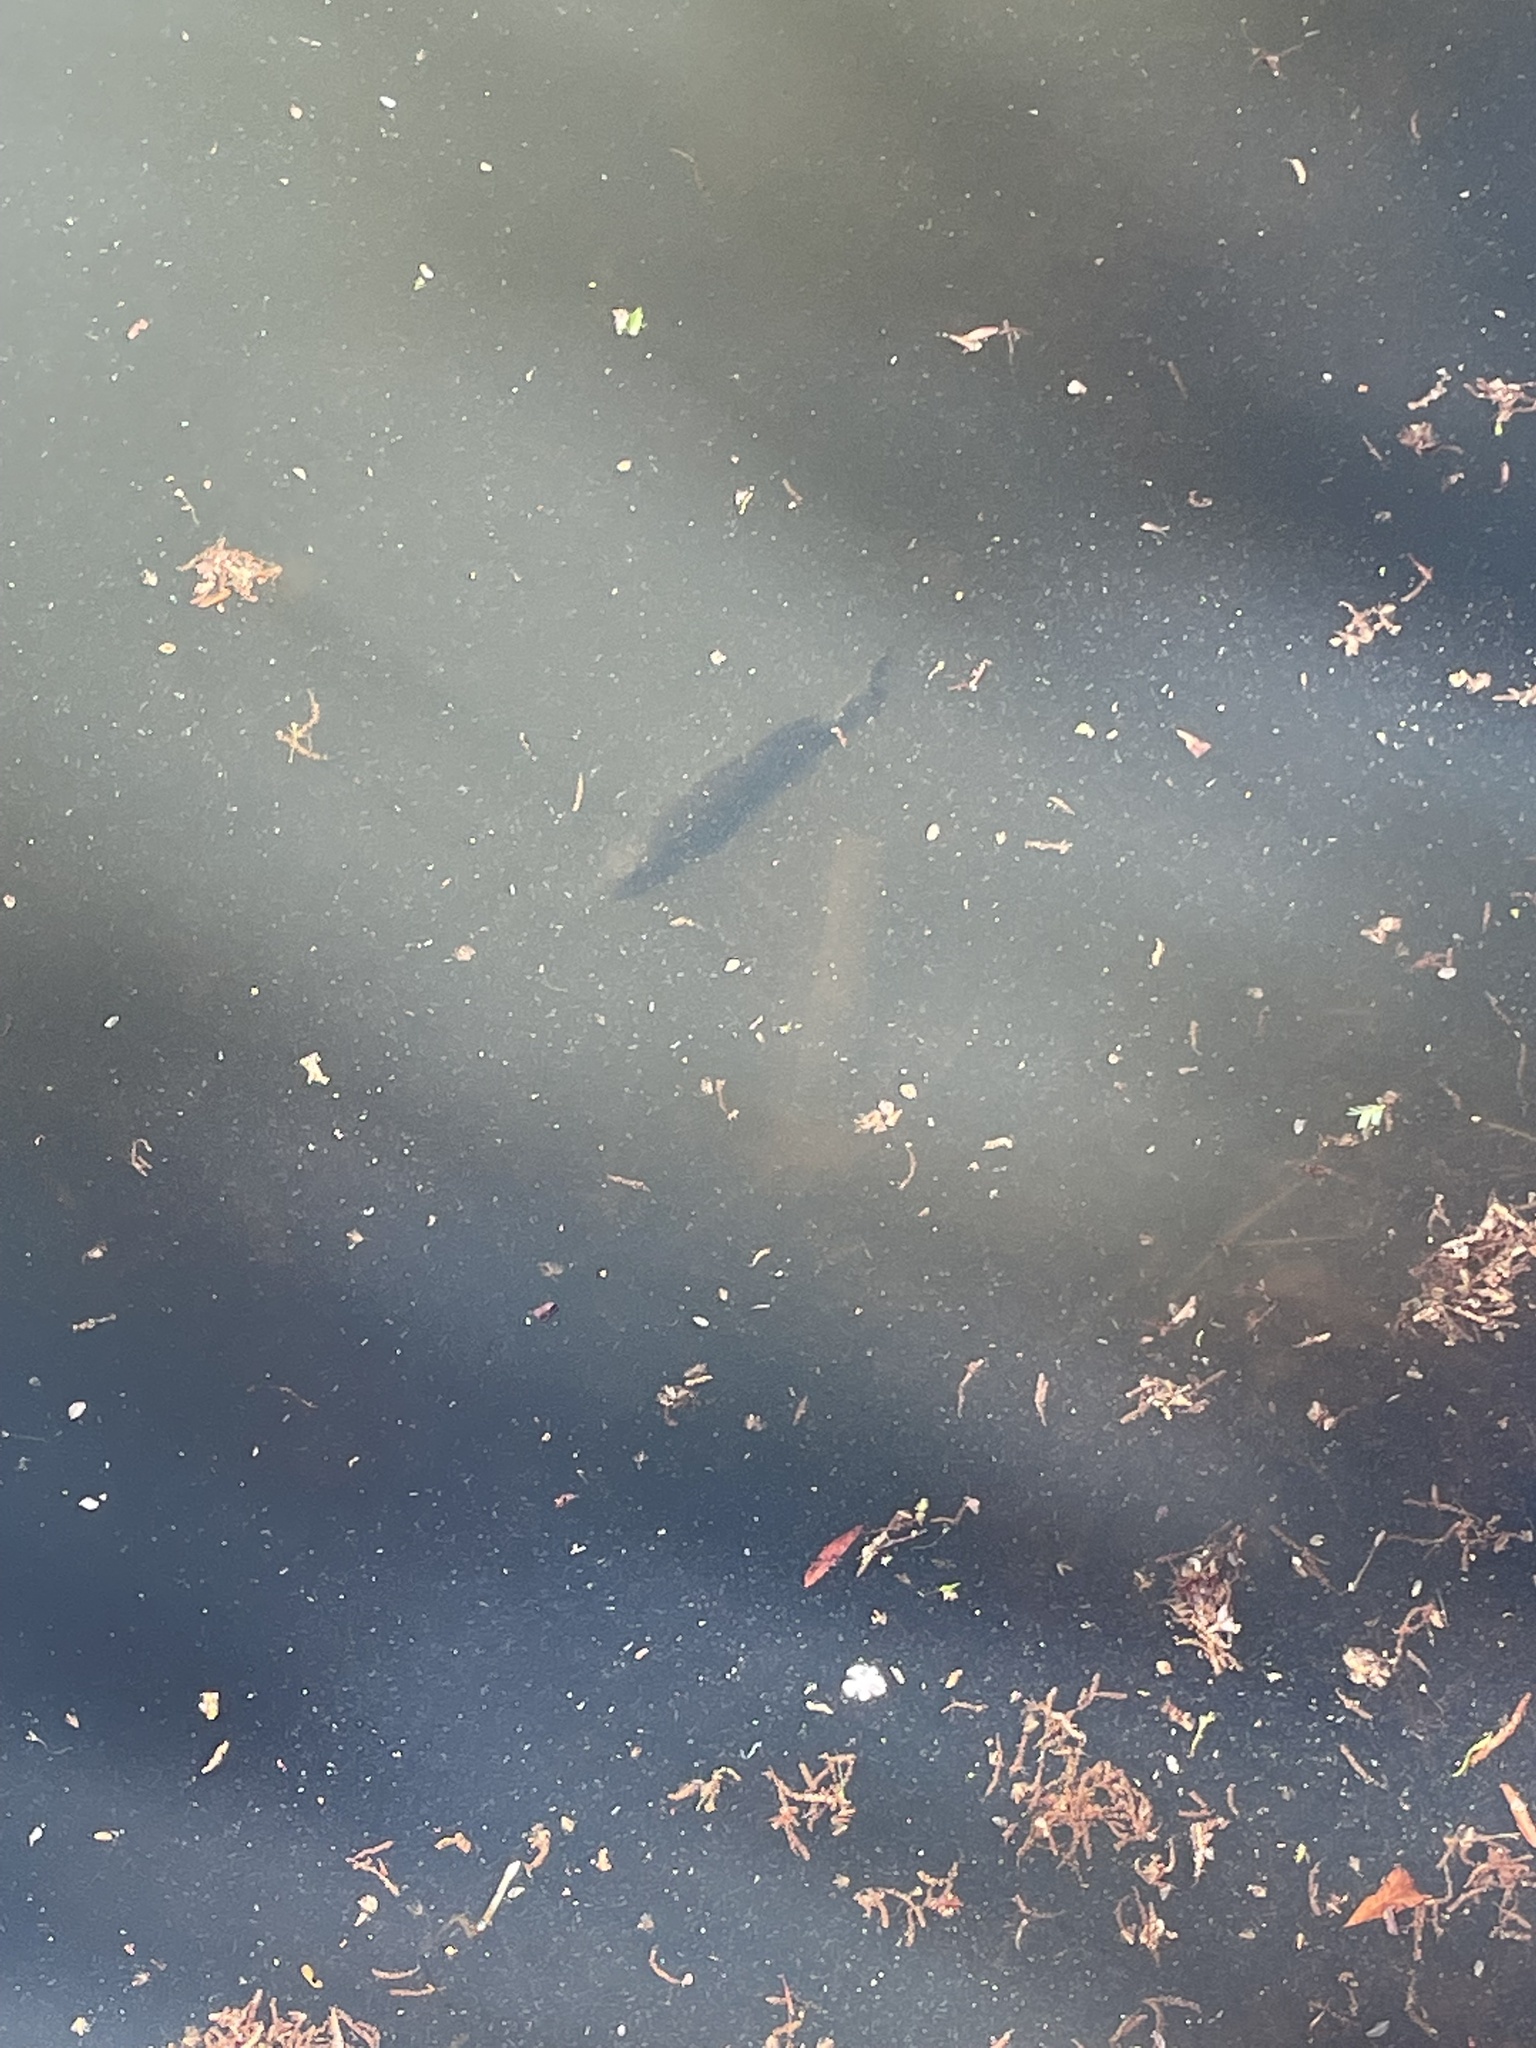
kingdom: Animalia
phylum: Chordata
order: Perciformes
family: Centrarchidae
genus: Micropterus
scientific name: Micropterus salmoides
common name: Largemouth bass
